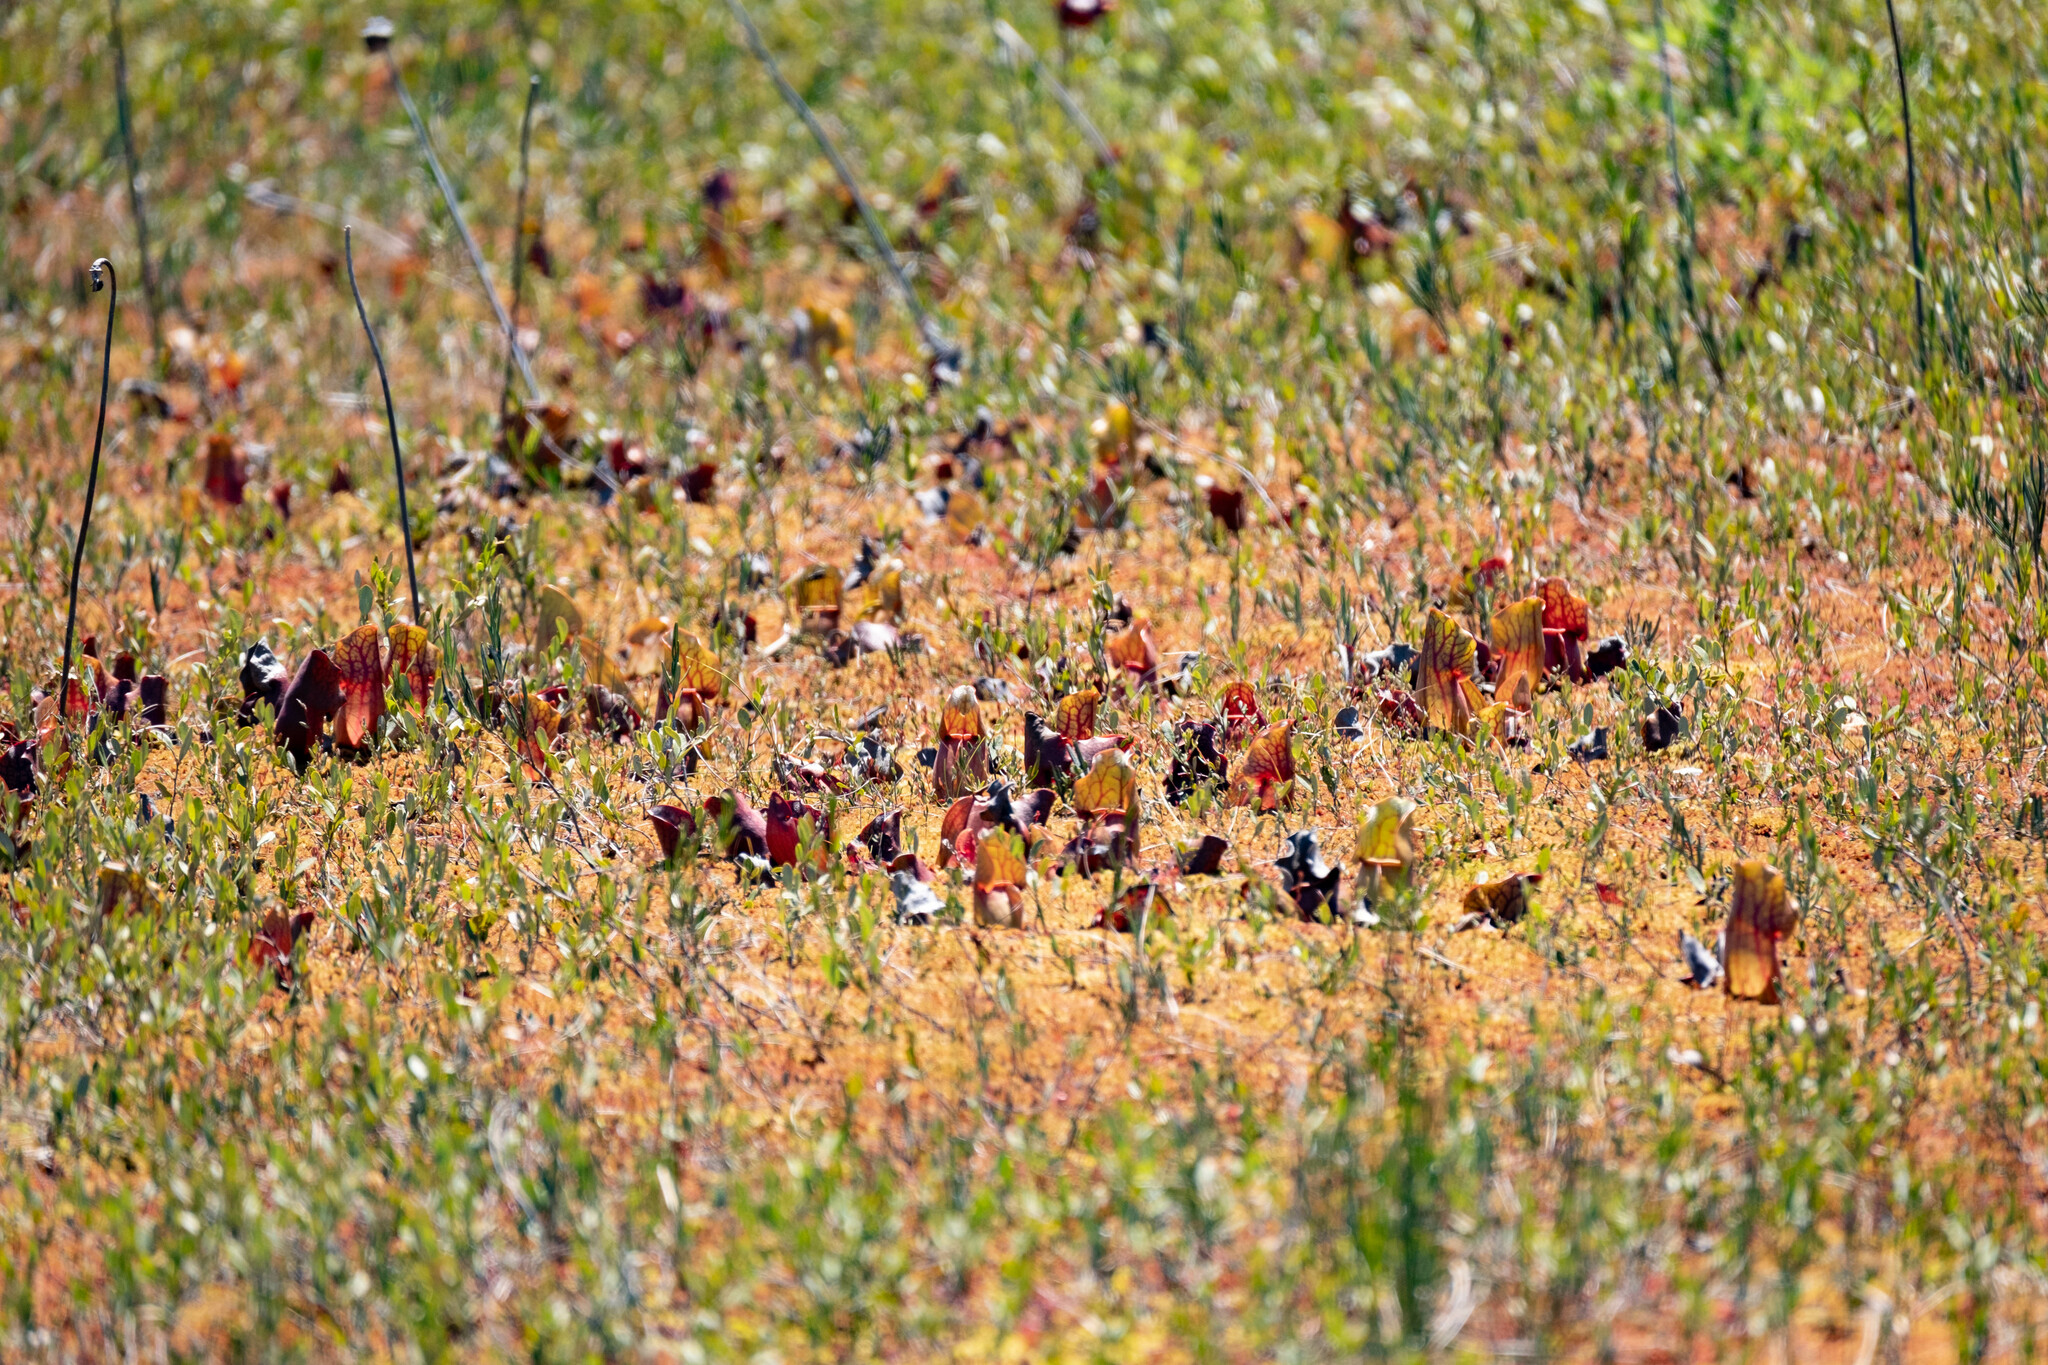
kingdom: Plantae
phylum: Tracheophyta
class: Magnoliopsida
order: Ericales
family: Sarraceniaceae
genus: Sarracenia
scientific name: Sarracenia purpurea
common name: Pitcherplant
